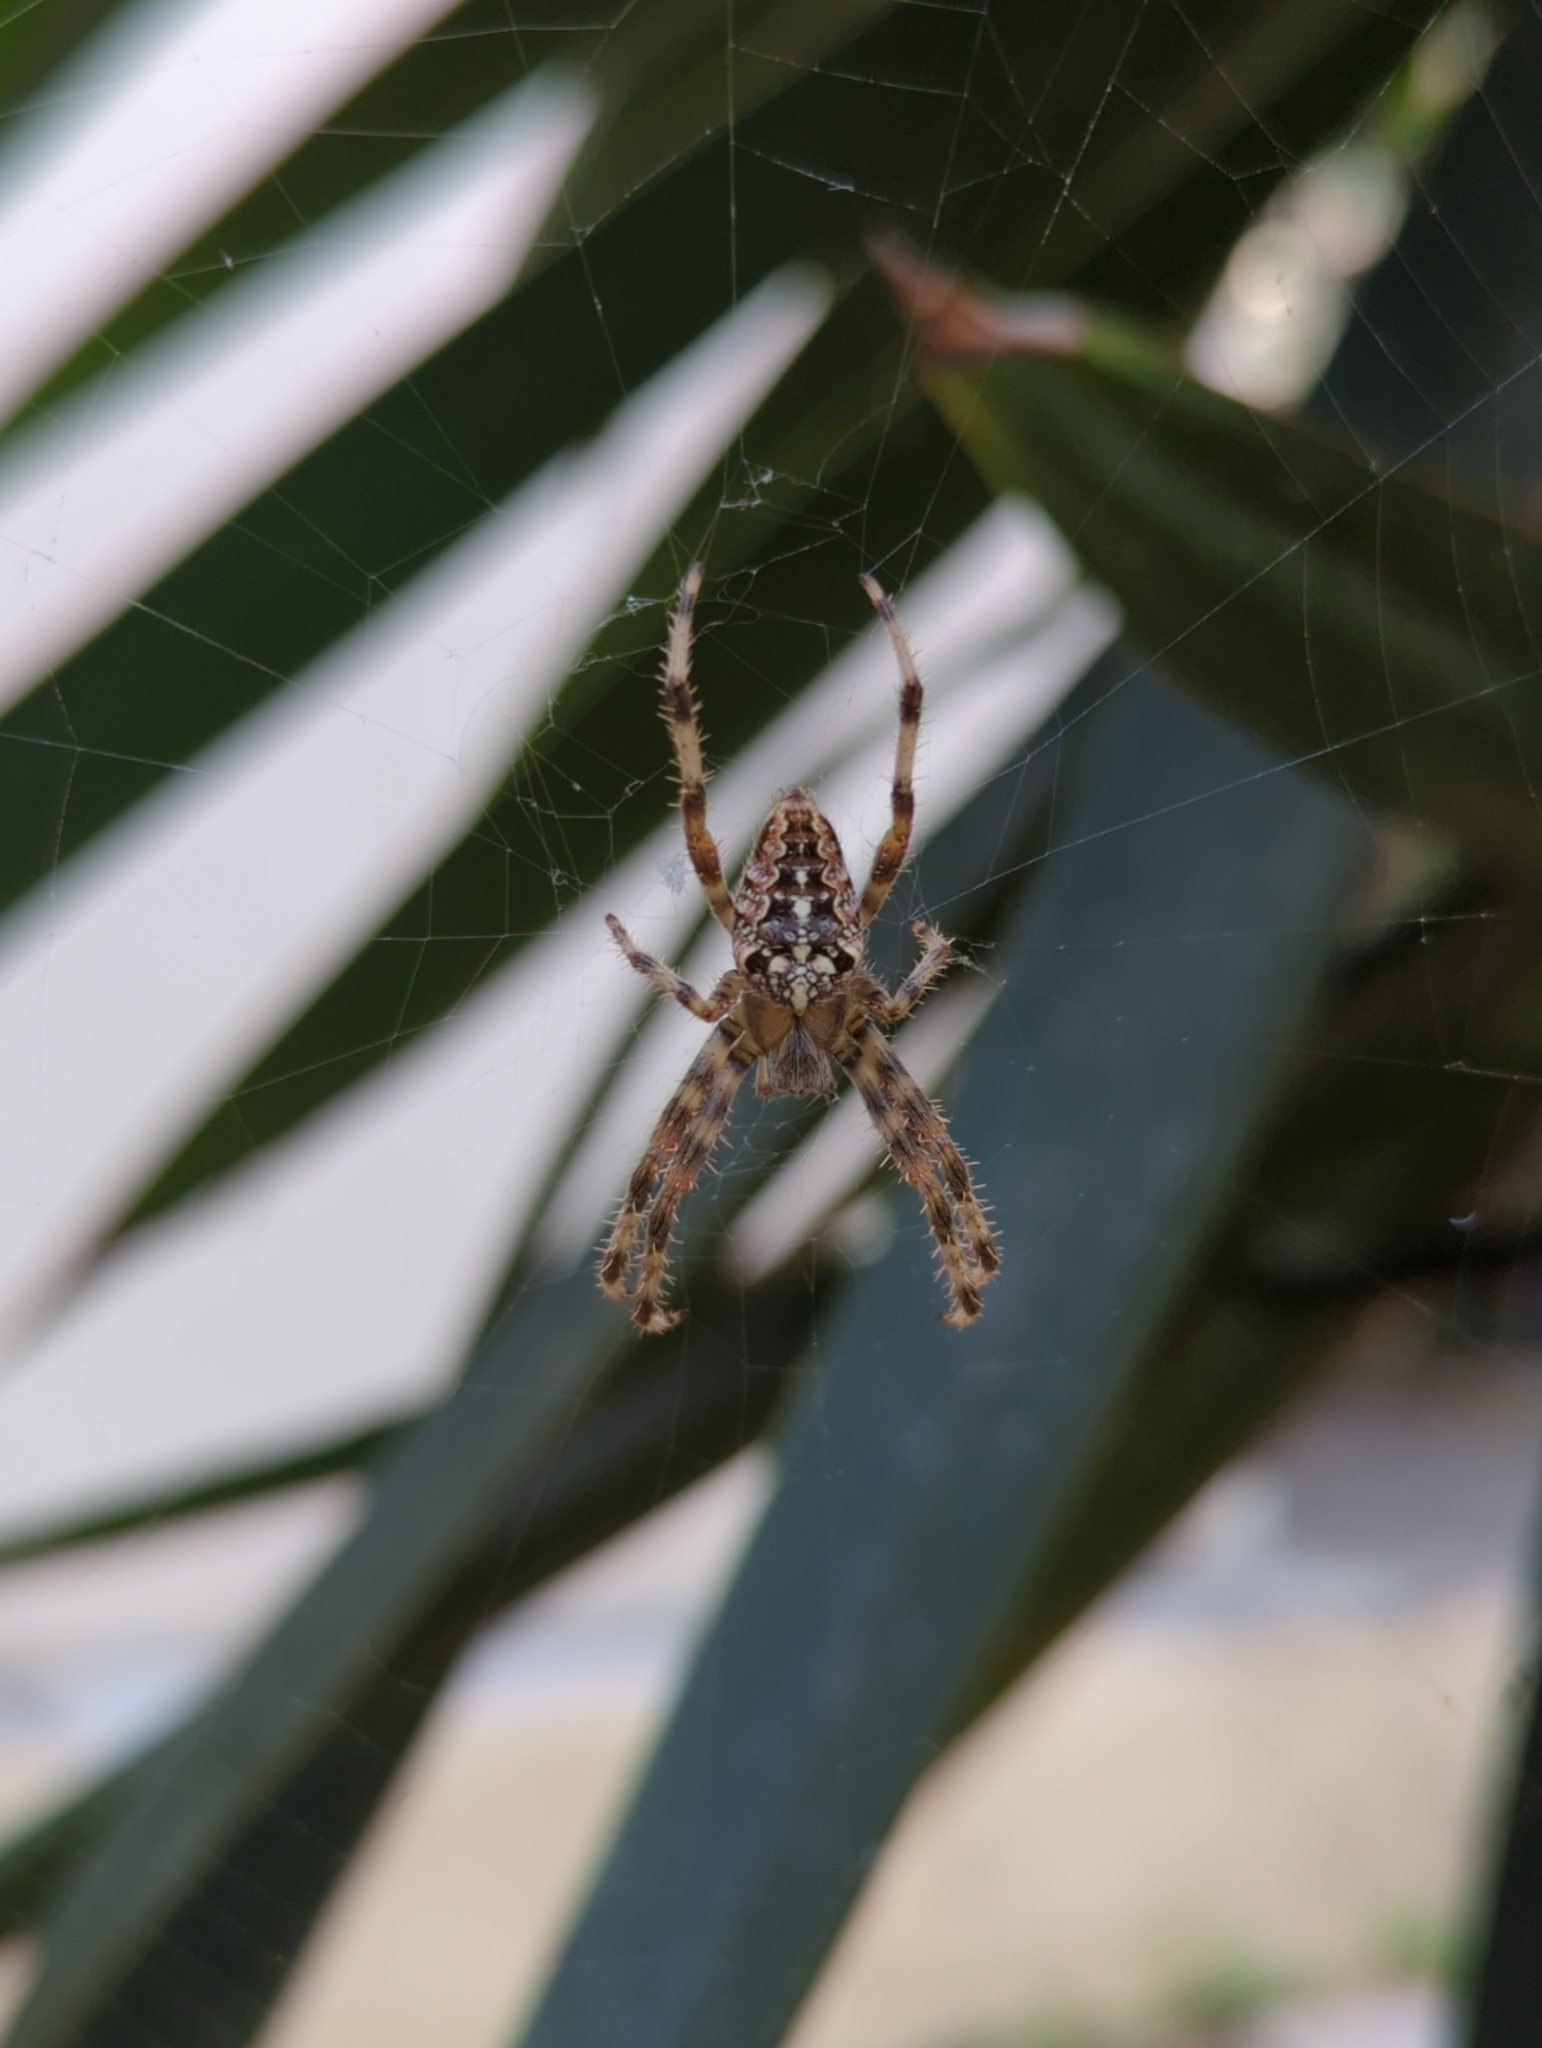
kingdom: Animalia
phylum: Arthropoda
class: Arachnida
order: Araneae
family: Araneidae
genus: Araneus
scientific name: Araneus diadematus
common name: Cross orbweaver
